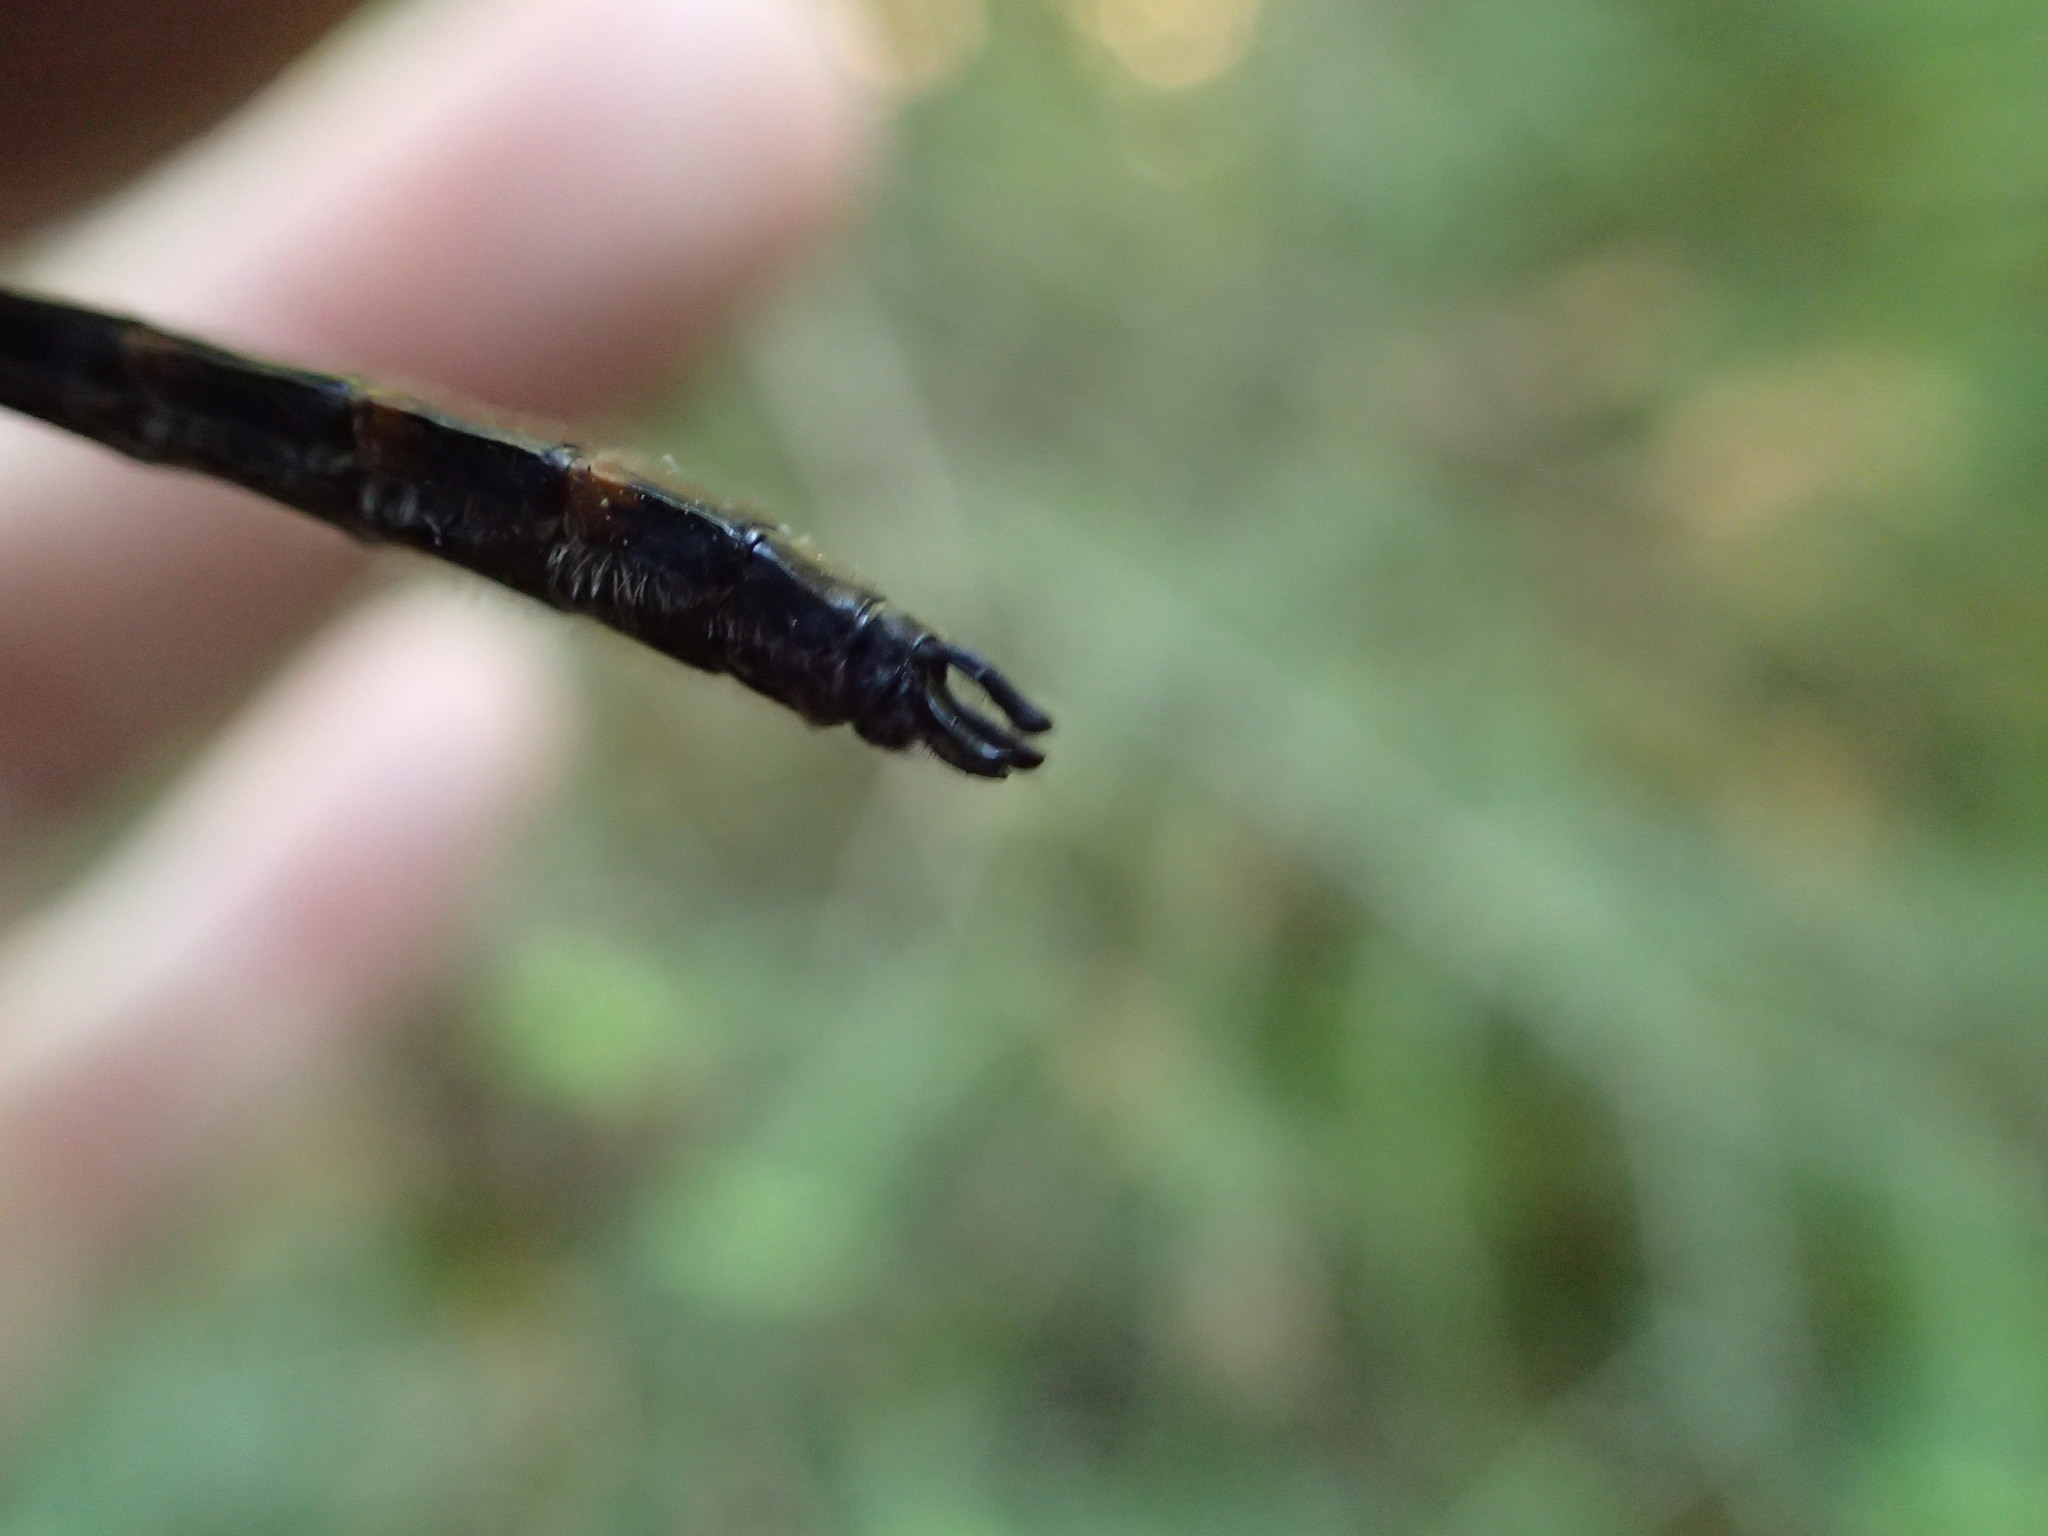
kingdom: Animalia
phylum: Arthropoda
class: Insecta
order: Odonata
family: Corduliidae
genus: Helocordulia
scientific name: Helocordulia uhleri
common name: Uhler's sundragon
